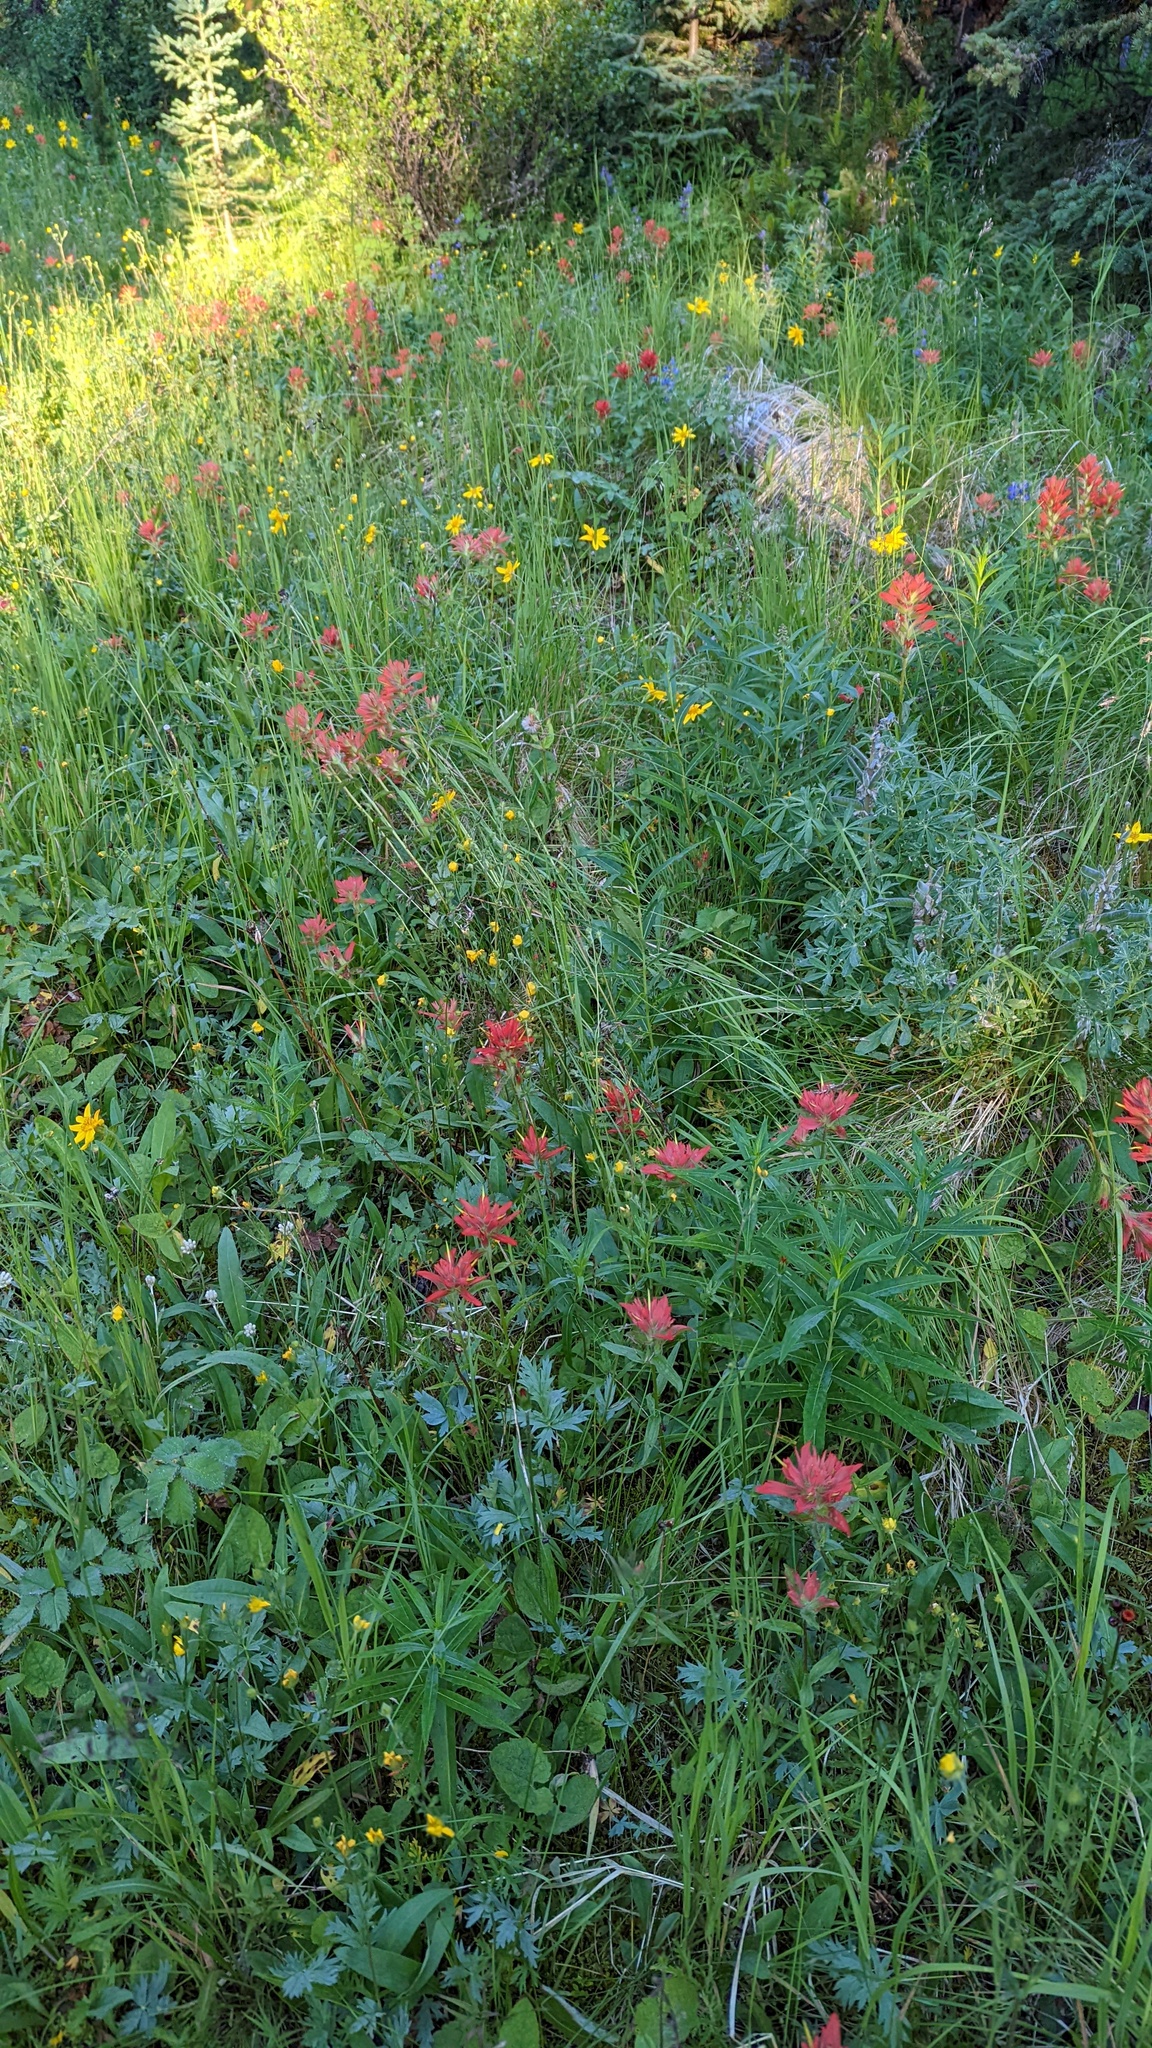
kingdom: Plantae
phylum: Tracheophyta
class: Magnoliopsida
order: Lamiales
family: Orobanchaceae
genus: Castilleja
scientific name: Castilleja miniata
